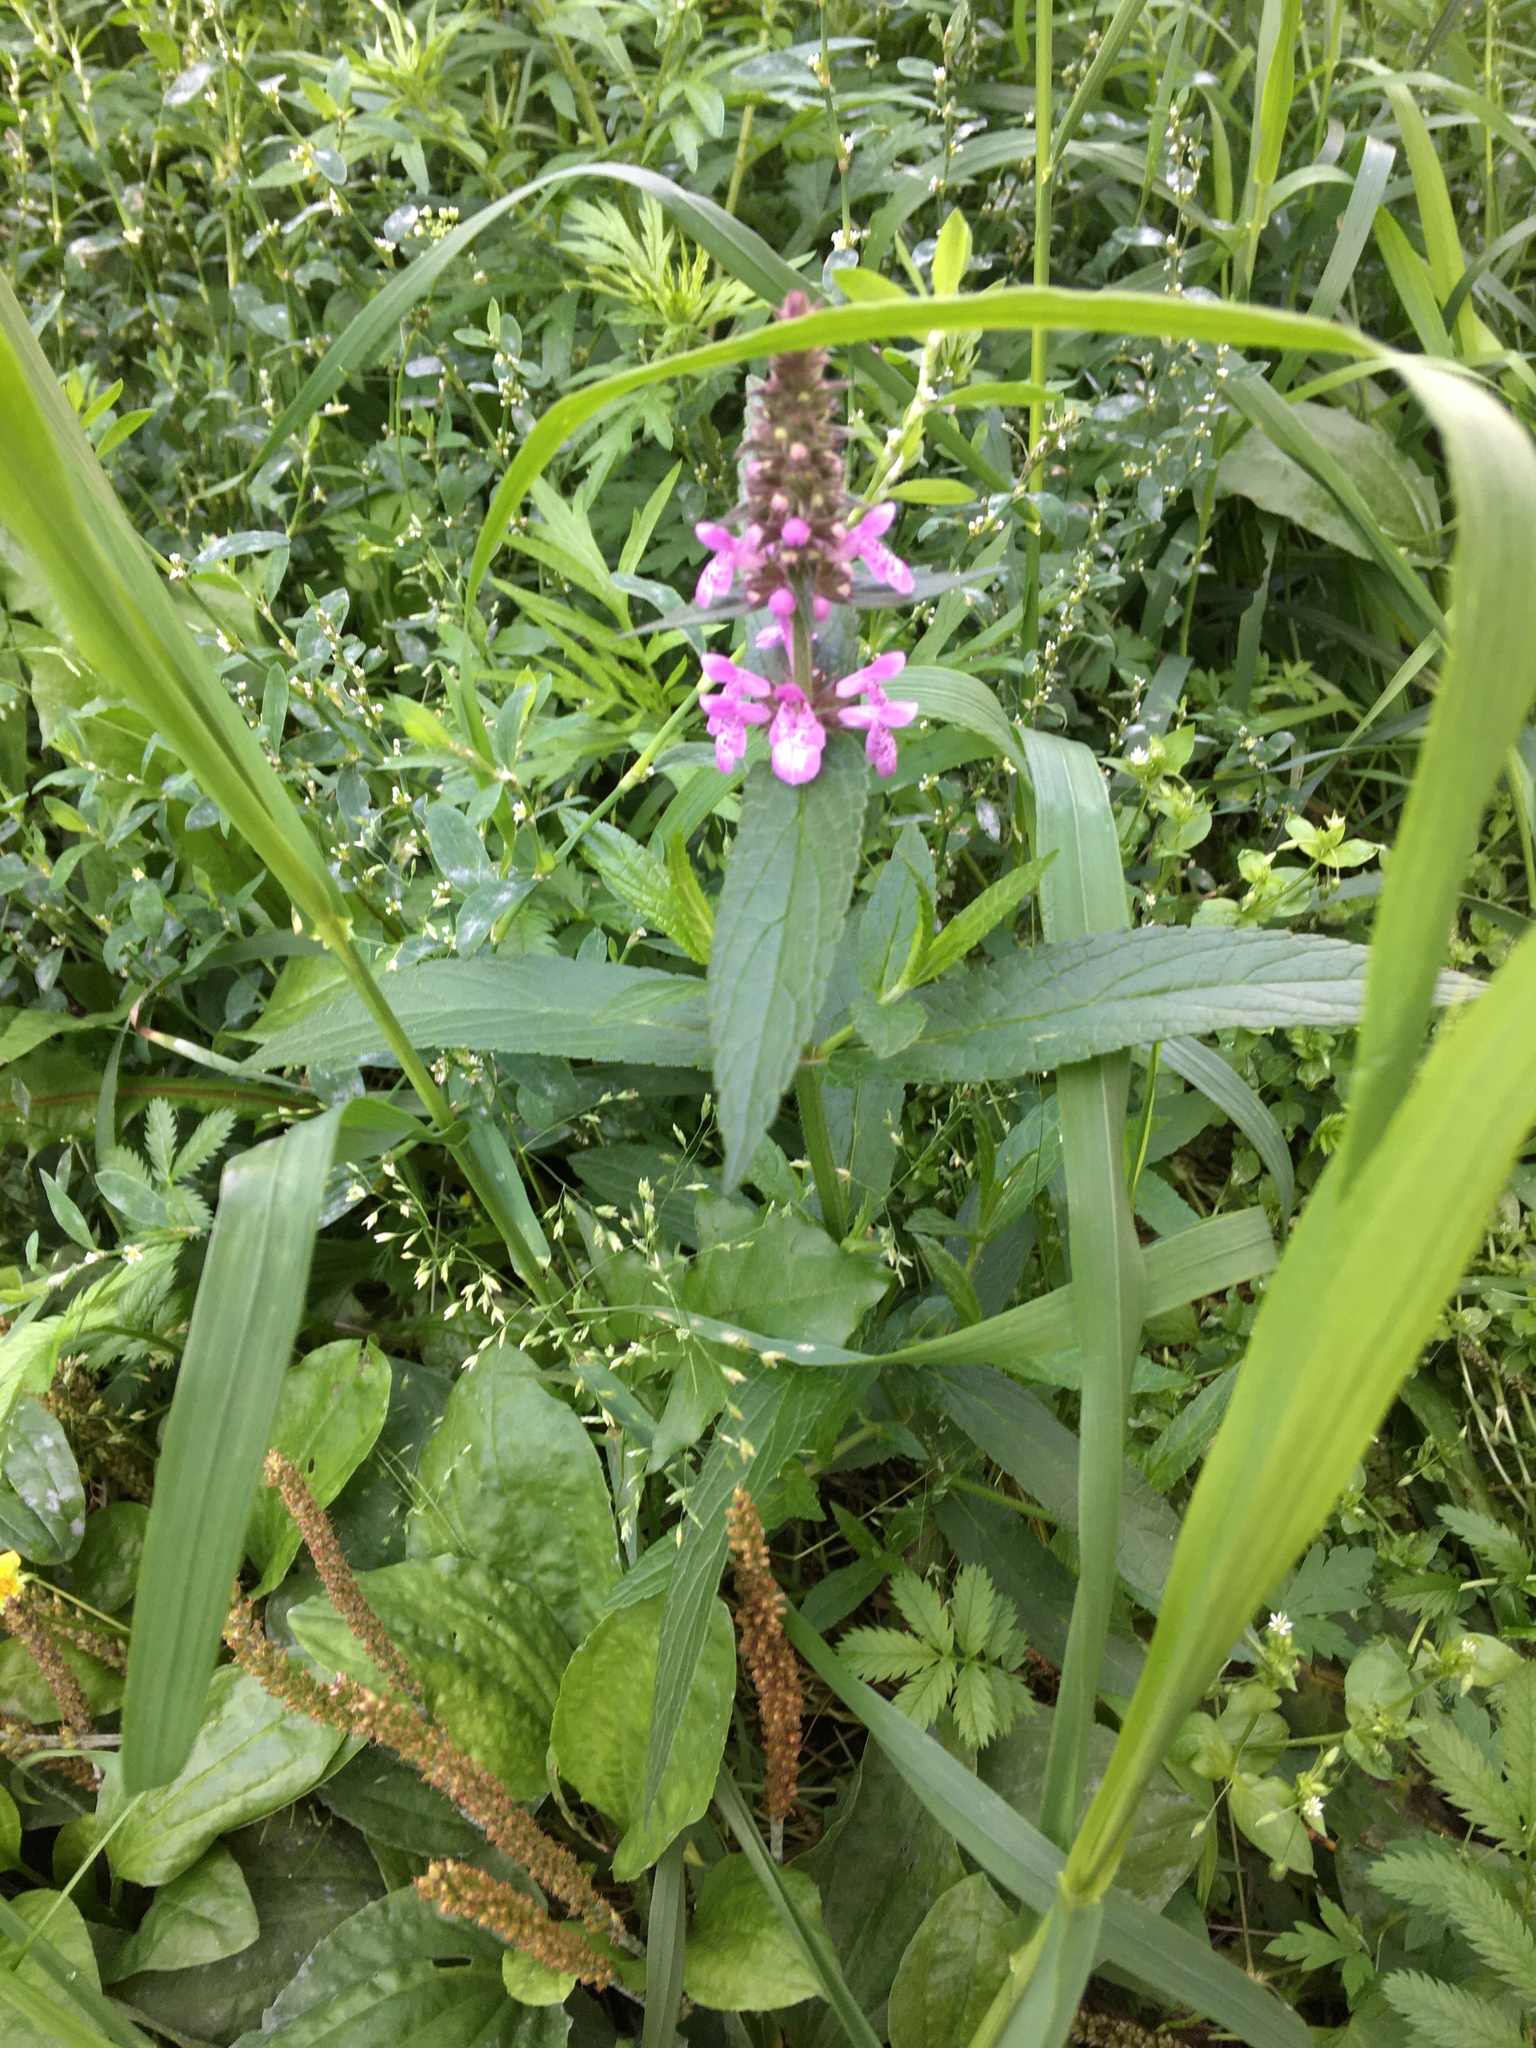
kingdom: Plantae
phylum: Tracheophyta
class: Magnoliopsida
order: Lamiales
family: Lamiaceae
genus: Stachys
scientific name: Stachys palustris
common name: Marsh woundwort
